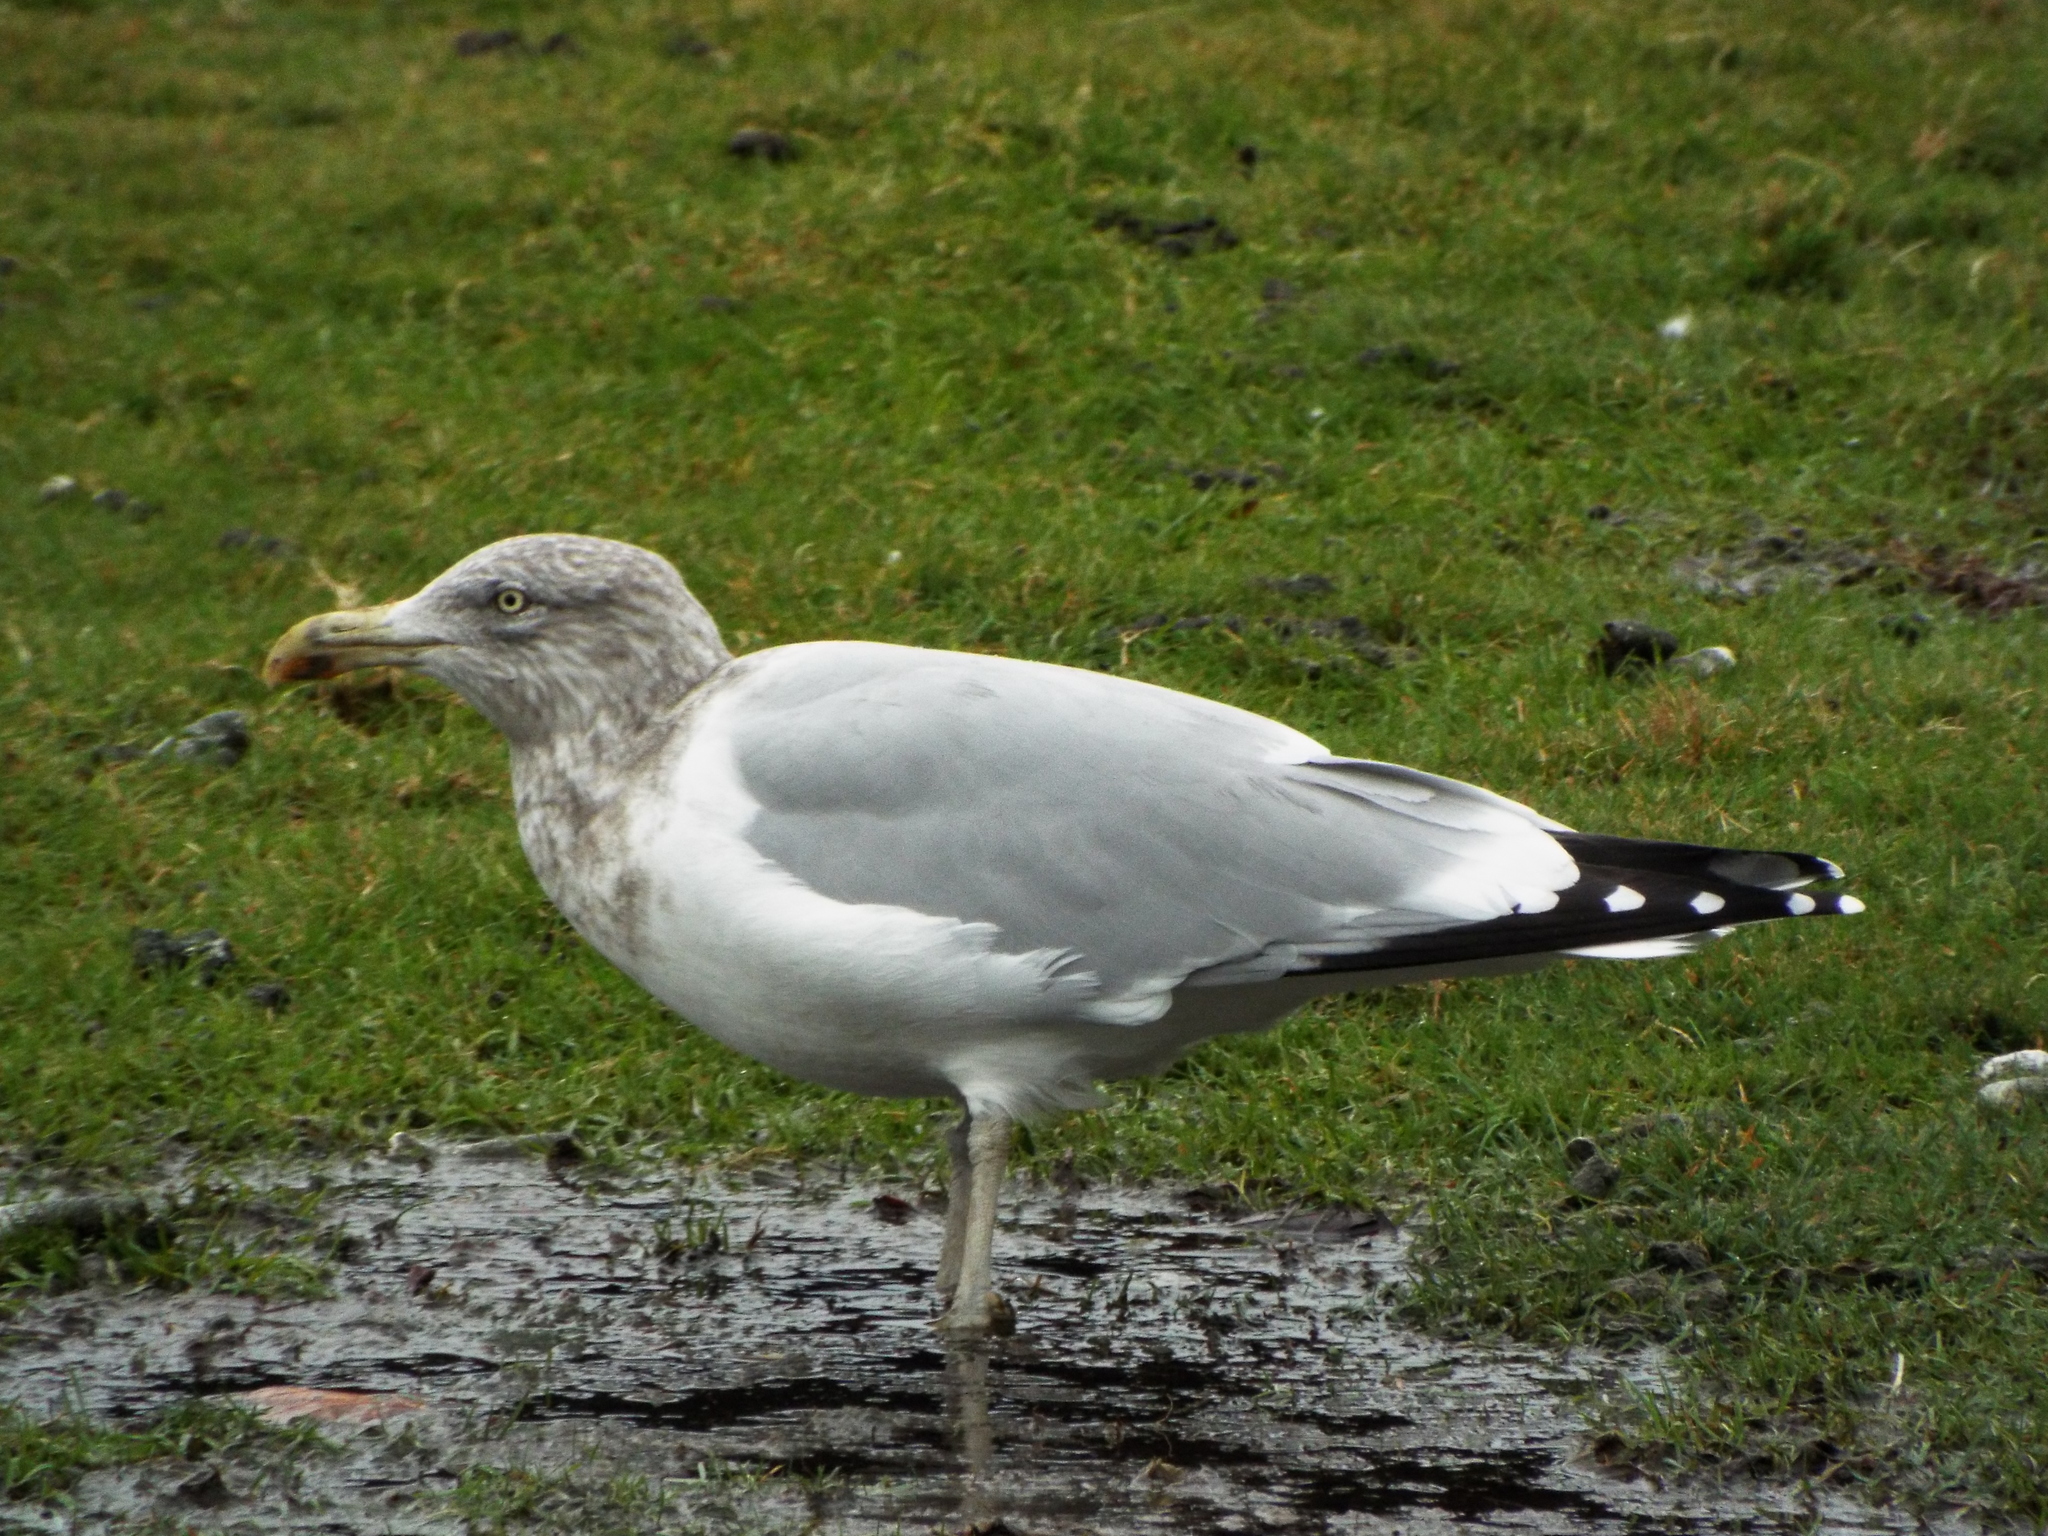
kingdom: Animalia
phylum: Chordata
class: Aves
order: Charadriiformes
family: Laridae
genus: Larus
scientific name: Larus argentatus
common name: Herring gull
